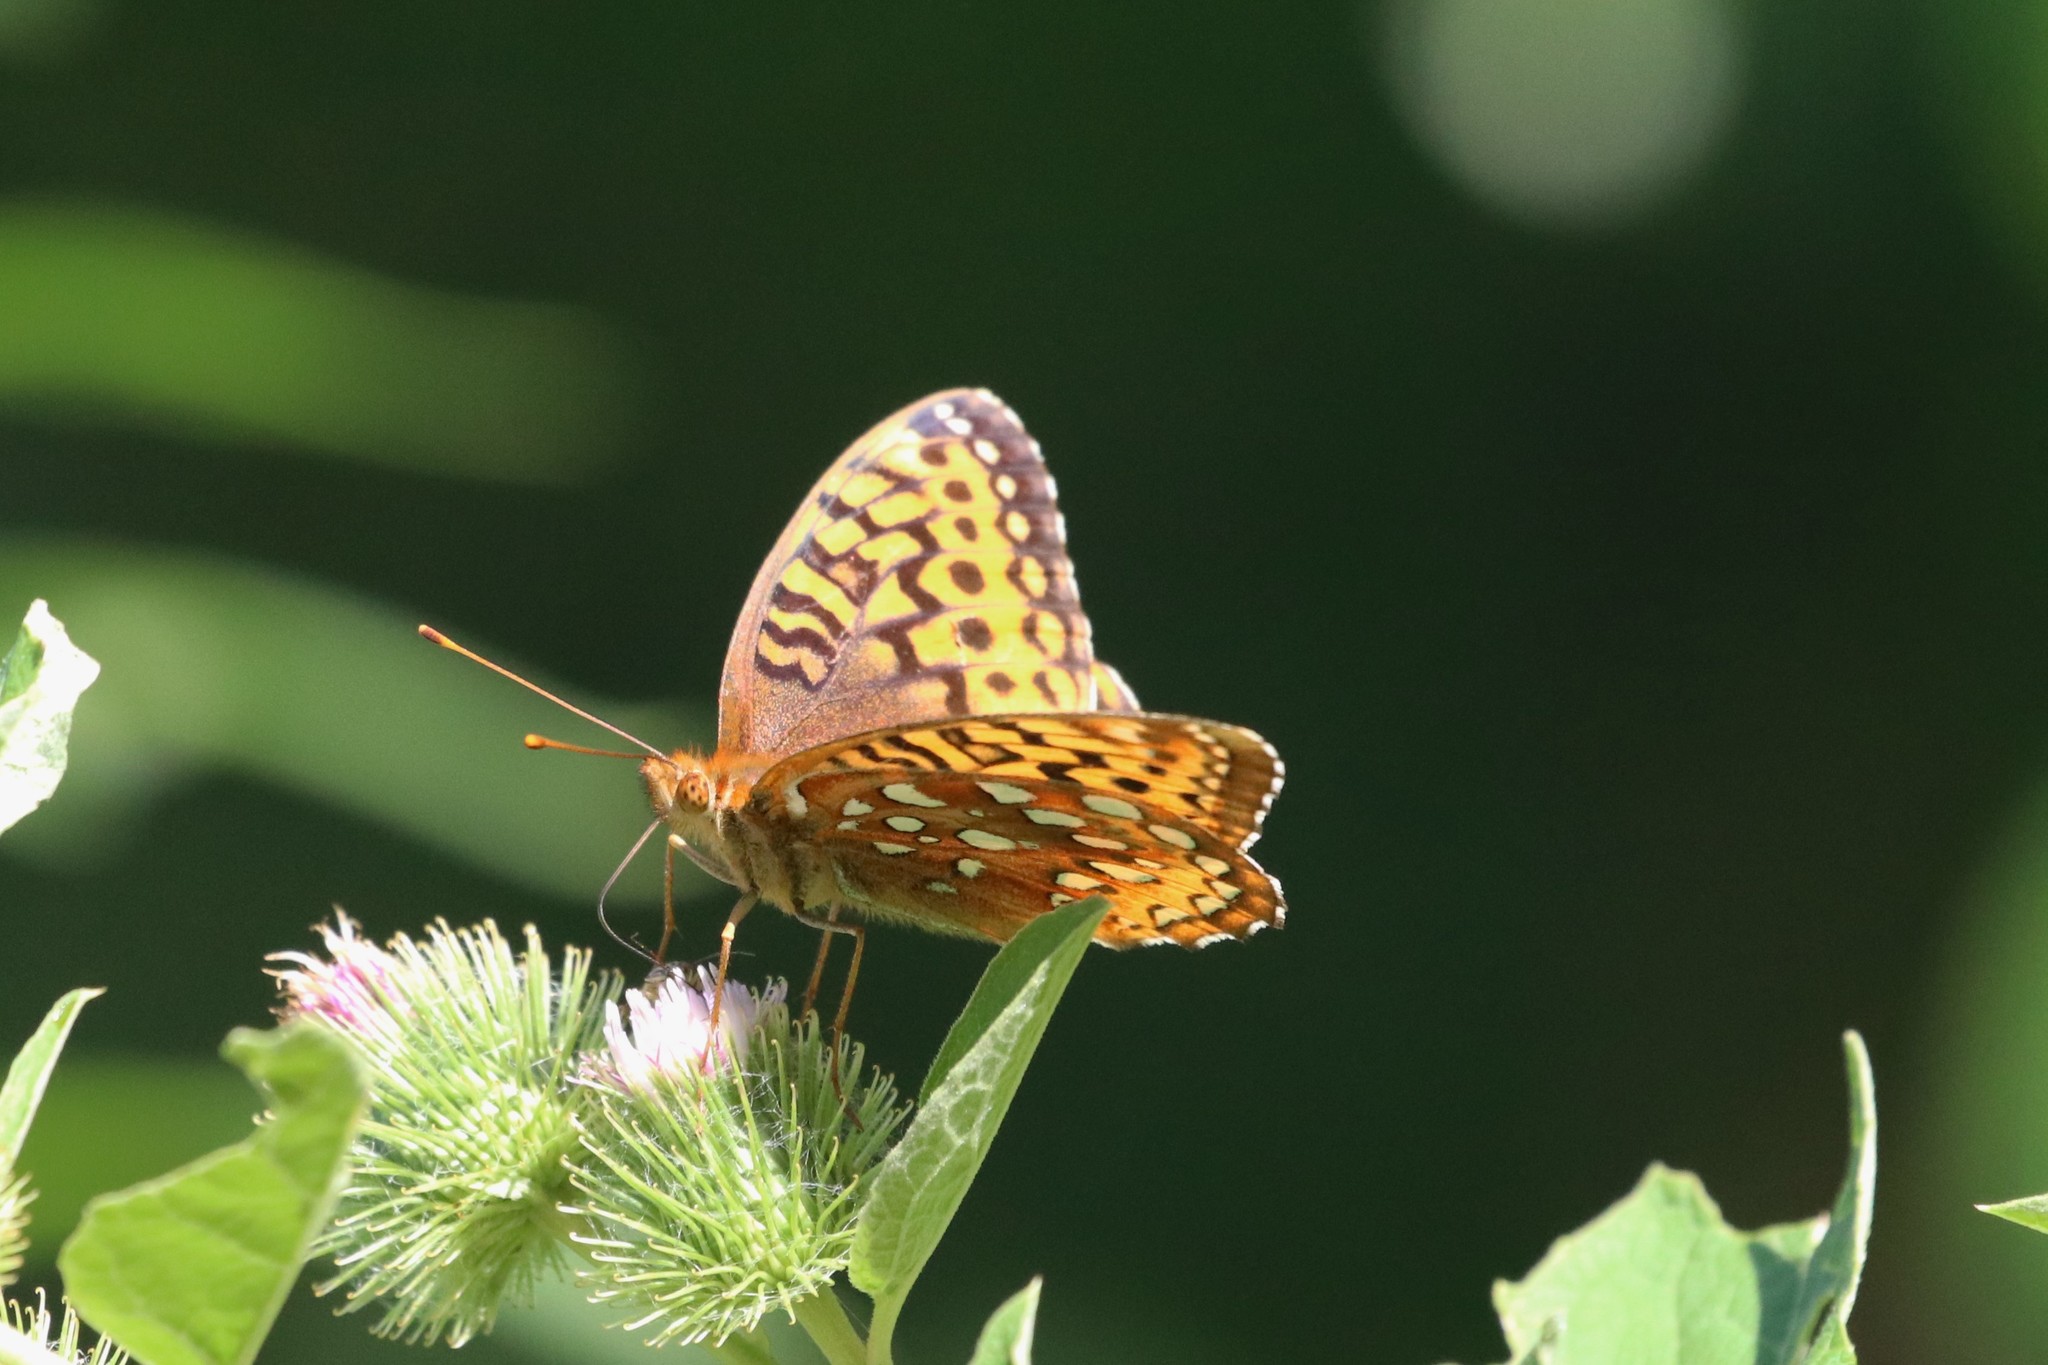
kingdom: Animalia
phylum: Arthropoda
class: Insecta
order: Lepidoptera
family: Nymphalidae
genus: Speyeria
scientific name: Speyeria cybele
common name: Great spangled fritillary
